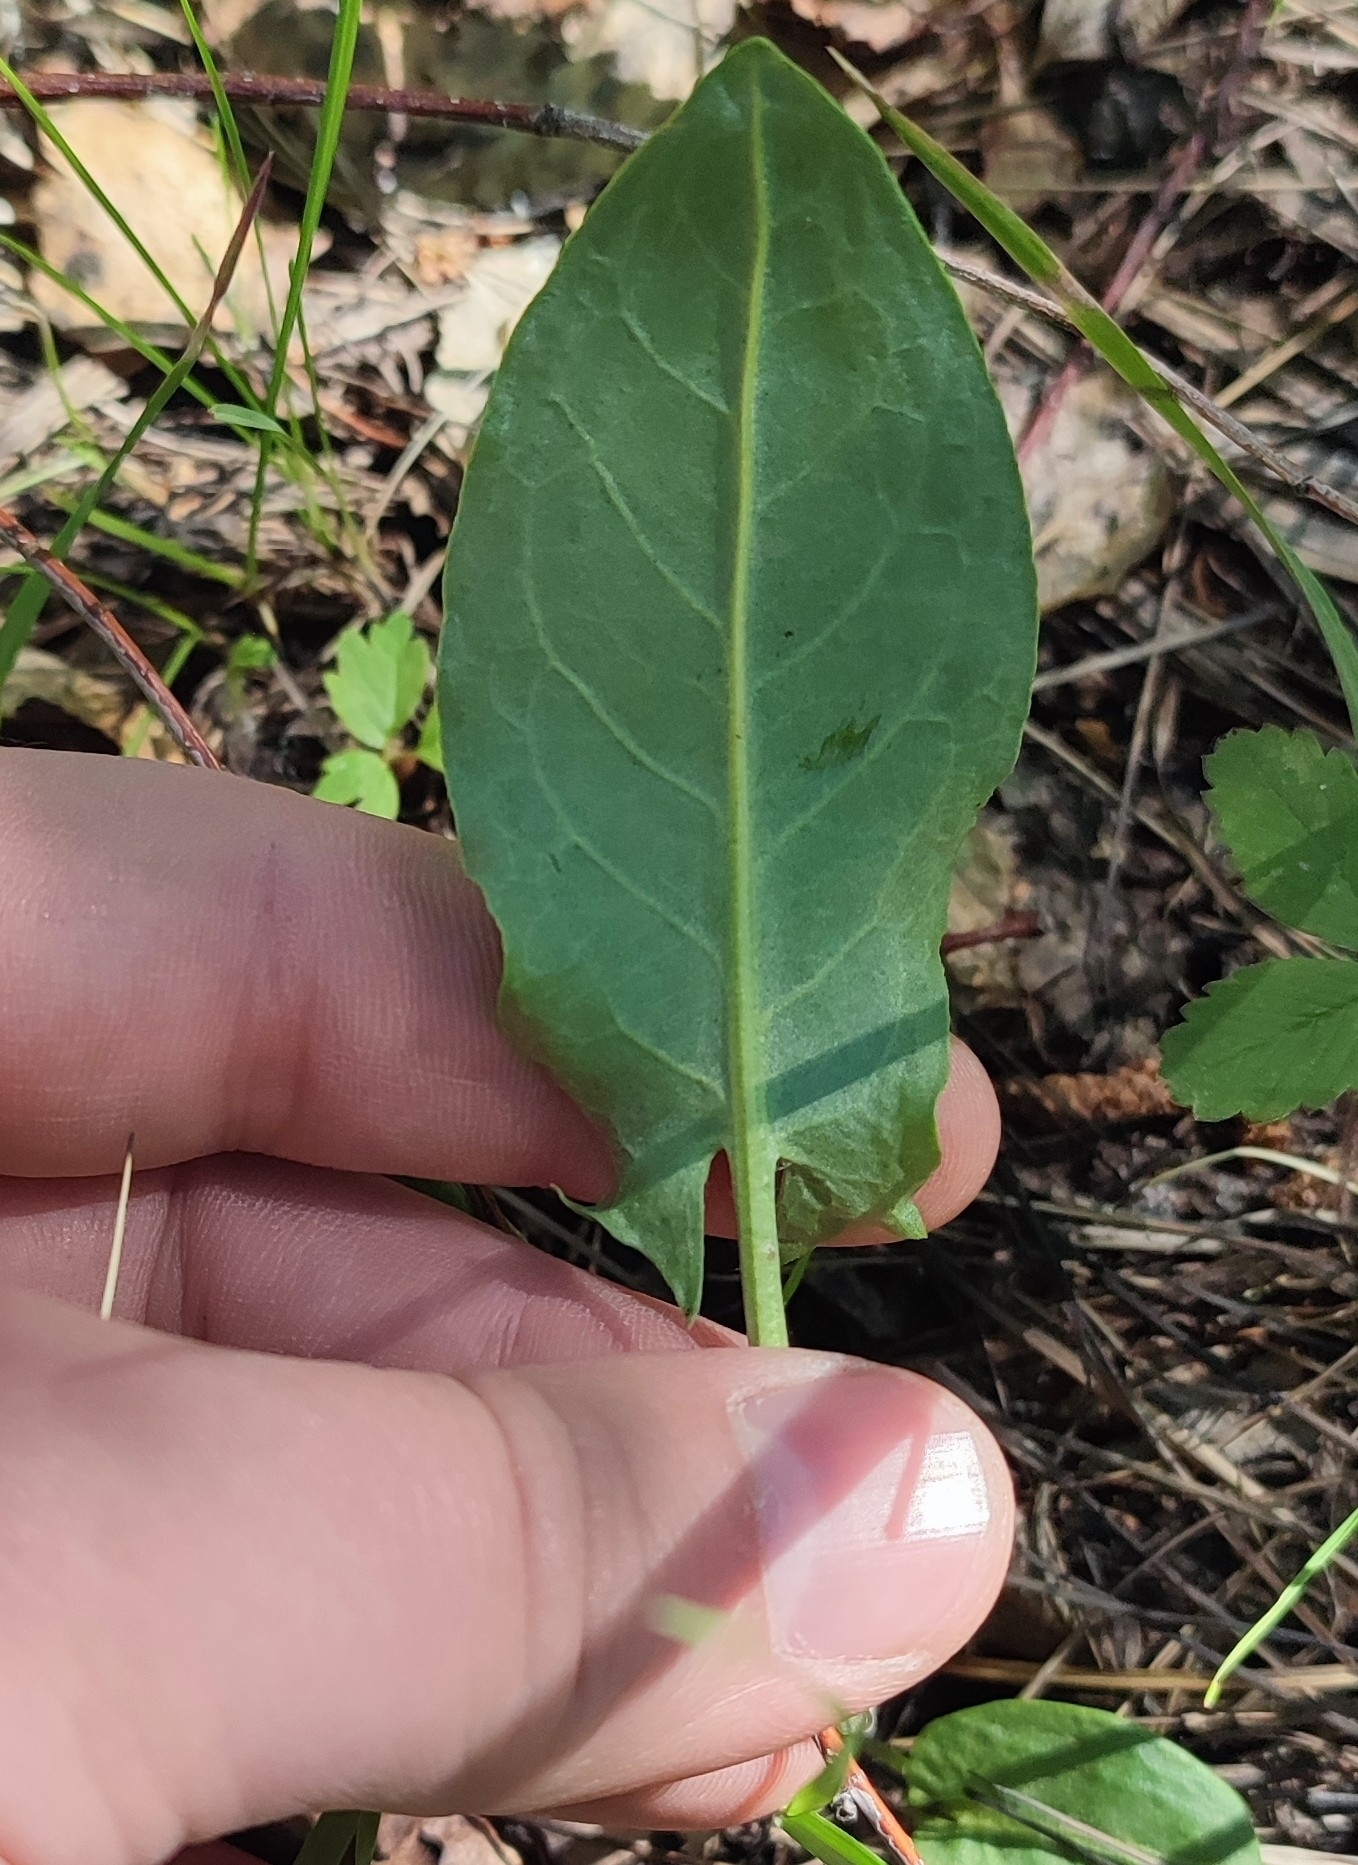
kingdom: Plantae
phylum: Tracheophyta
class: Magnoliopsida
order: Caryophyllales
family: Polygonaceae
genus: Rumex
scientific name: Rumex thyrsiflorus
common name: Garden sorrel
